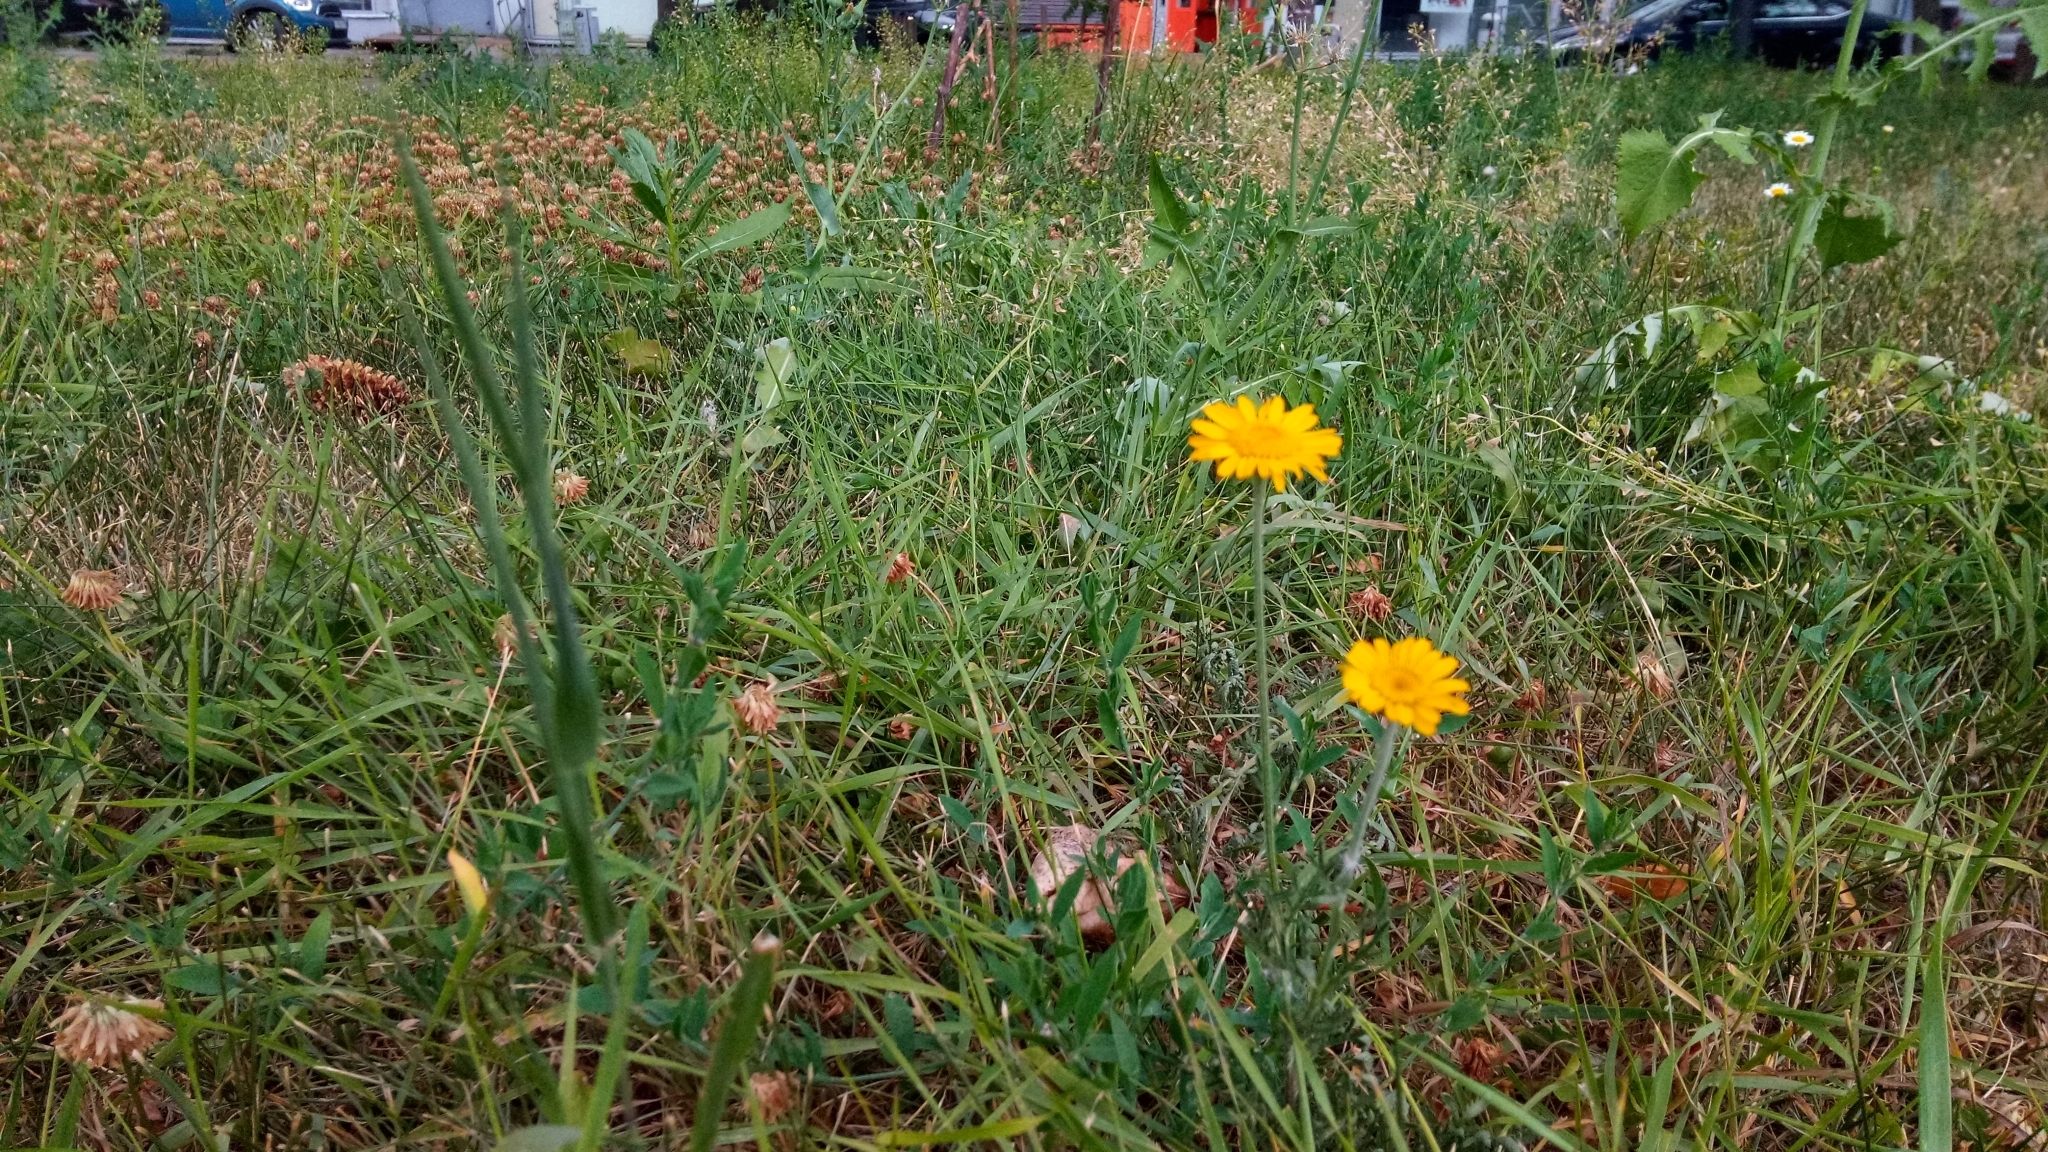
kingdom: Plantae
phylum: Tracheophyta
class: Magnoliopsida
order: Asterales
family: Asteraceae
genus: Cota
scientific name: Cota tinctoria
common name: Golden chamomile
